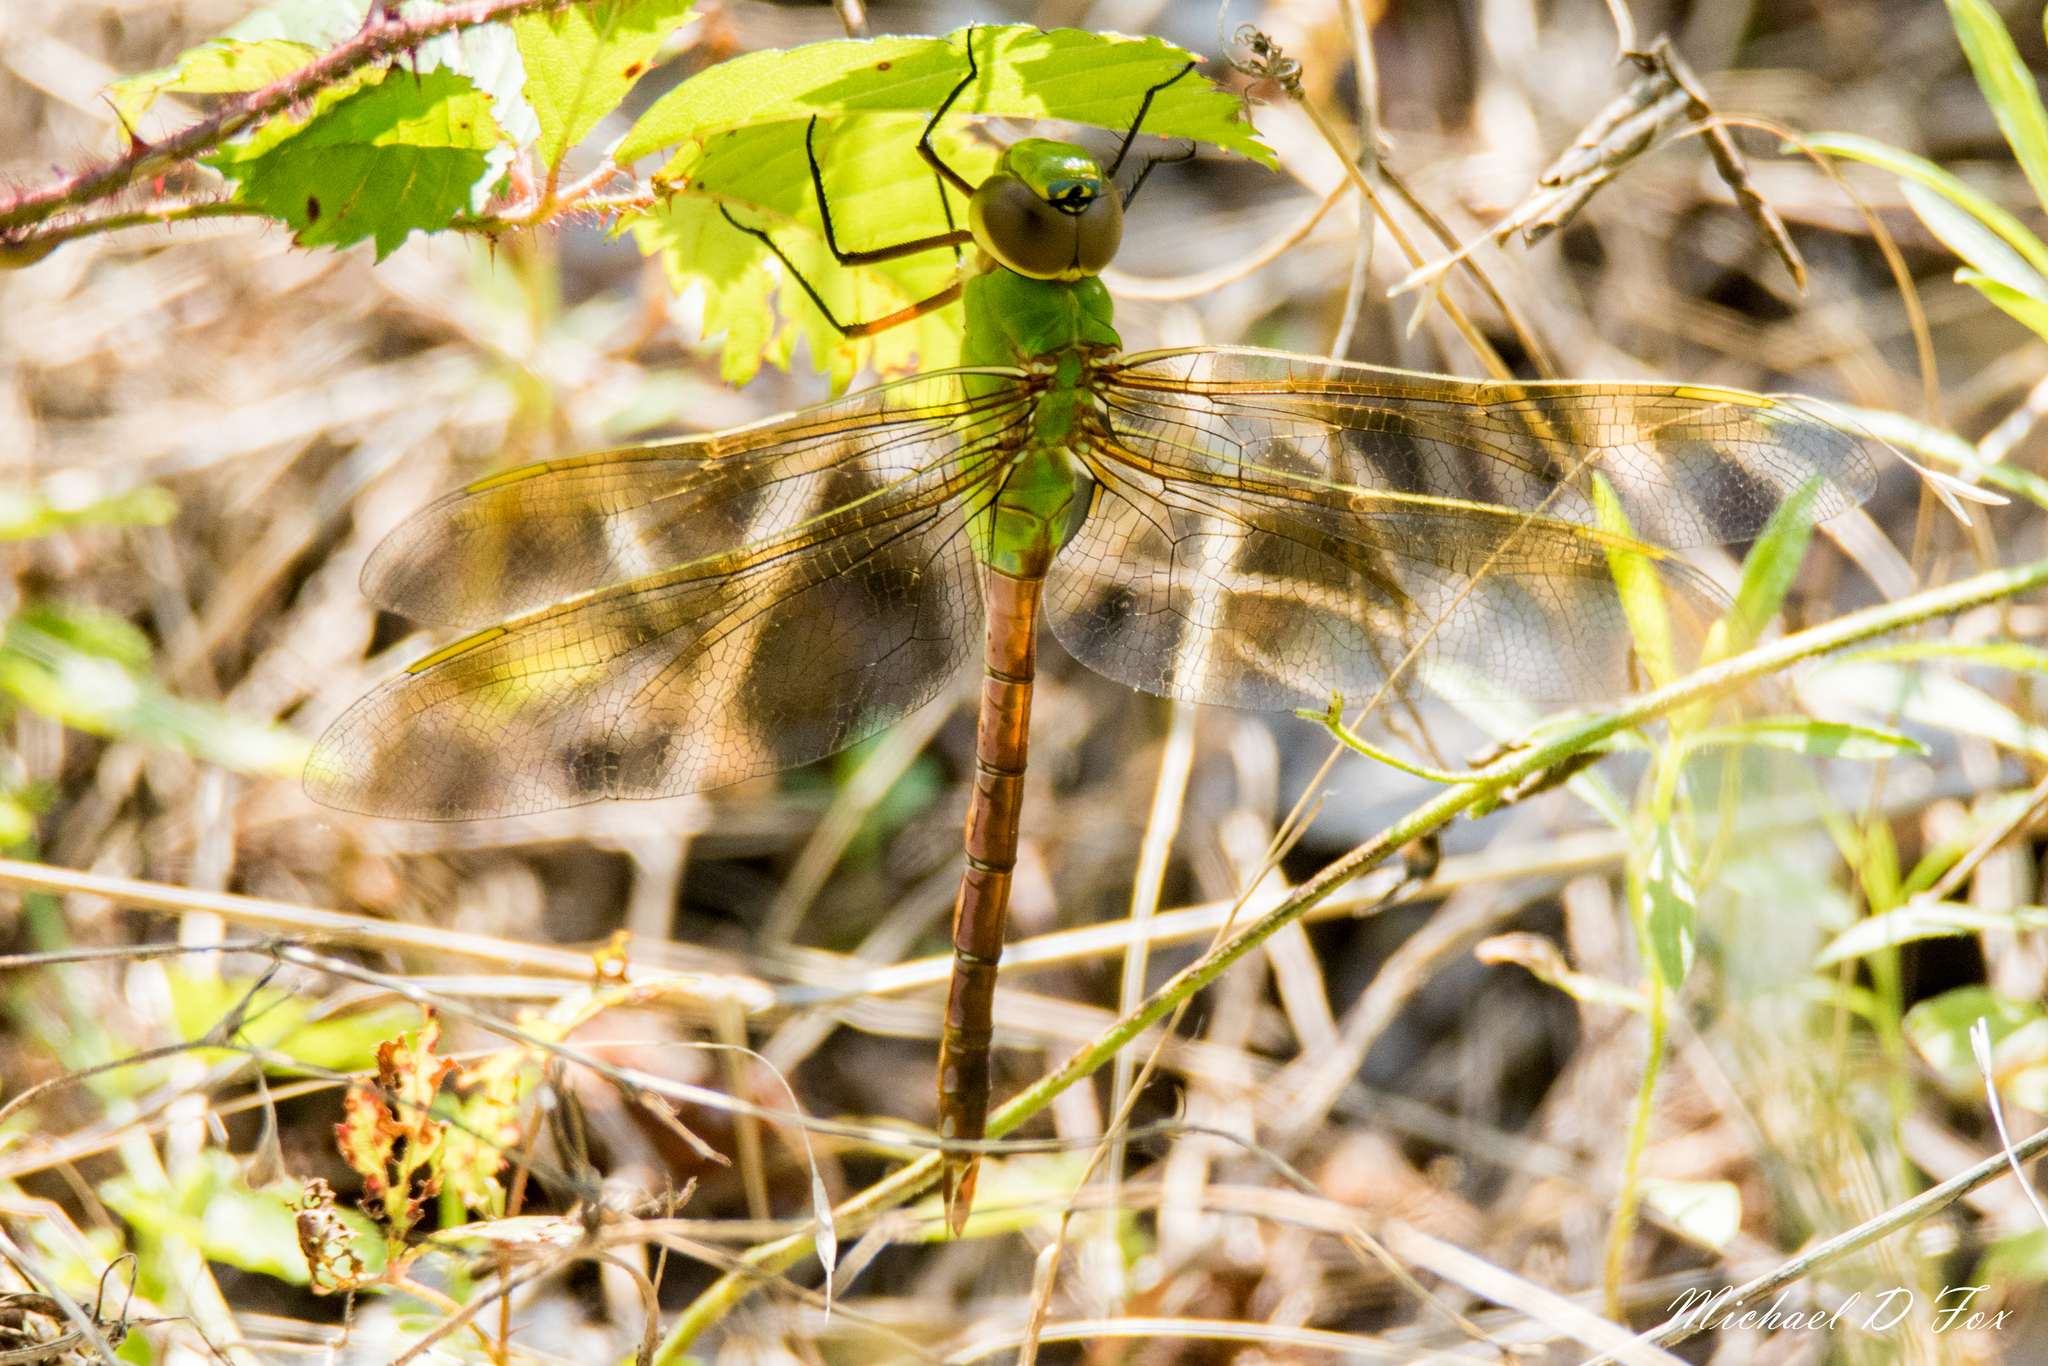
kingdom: Animalia
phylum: Arthropoda
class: Insecta
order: Odonata
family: Aeshnidae
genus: Anax
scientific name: Anax junius
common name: Common green darner
